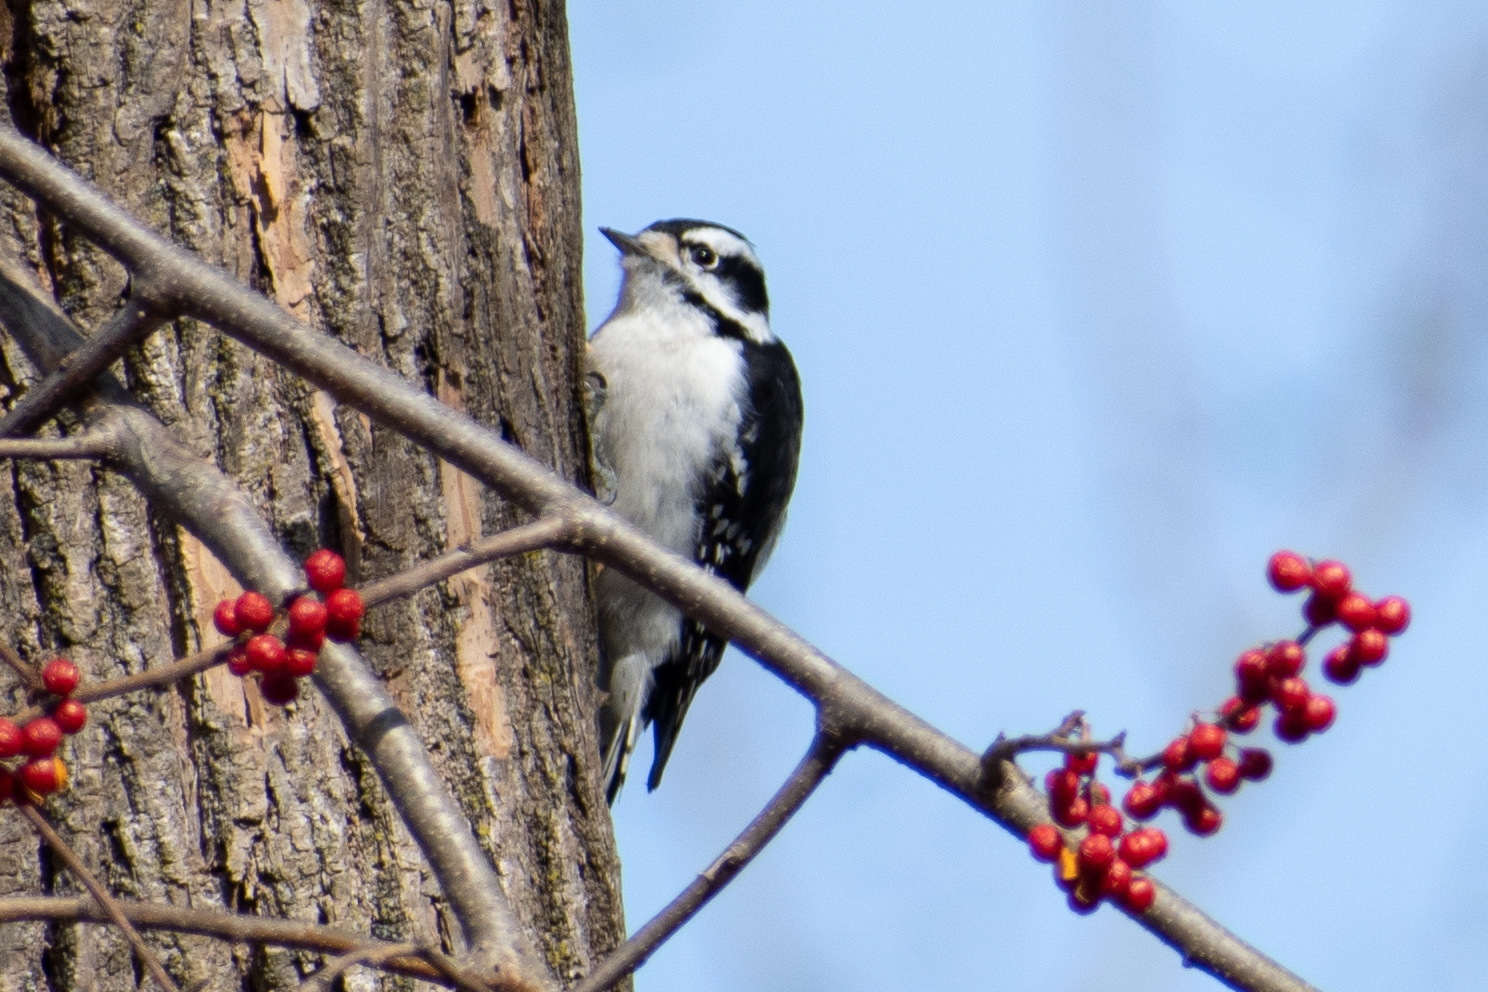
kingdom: Animalia
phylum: Chordata
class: Aves
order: Piciformes
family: Picidae
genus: Dryobates
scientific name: Dryobates pubescens
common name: Downy woodpecker
